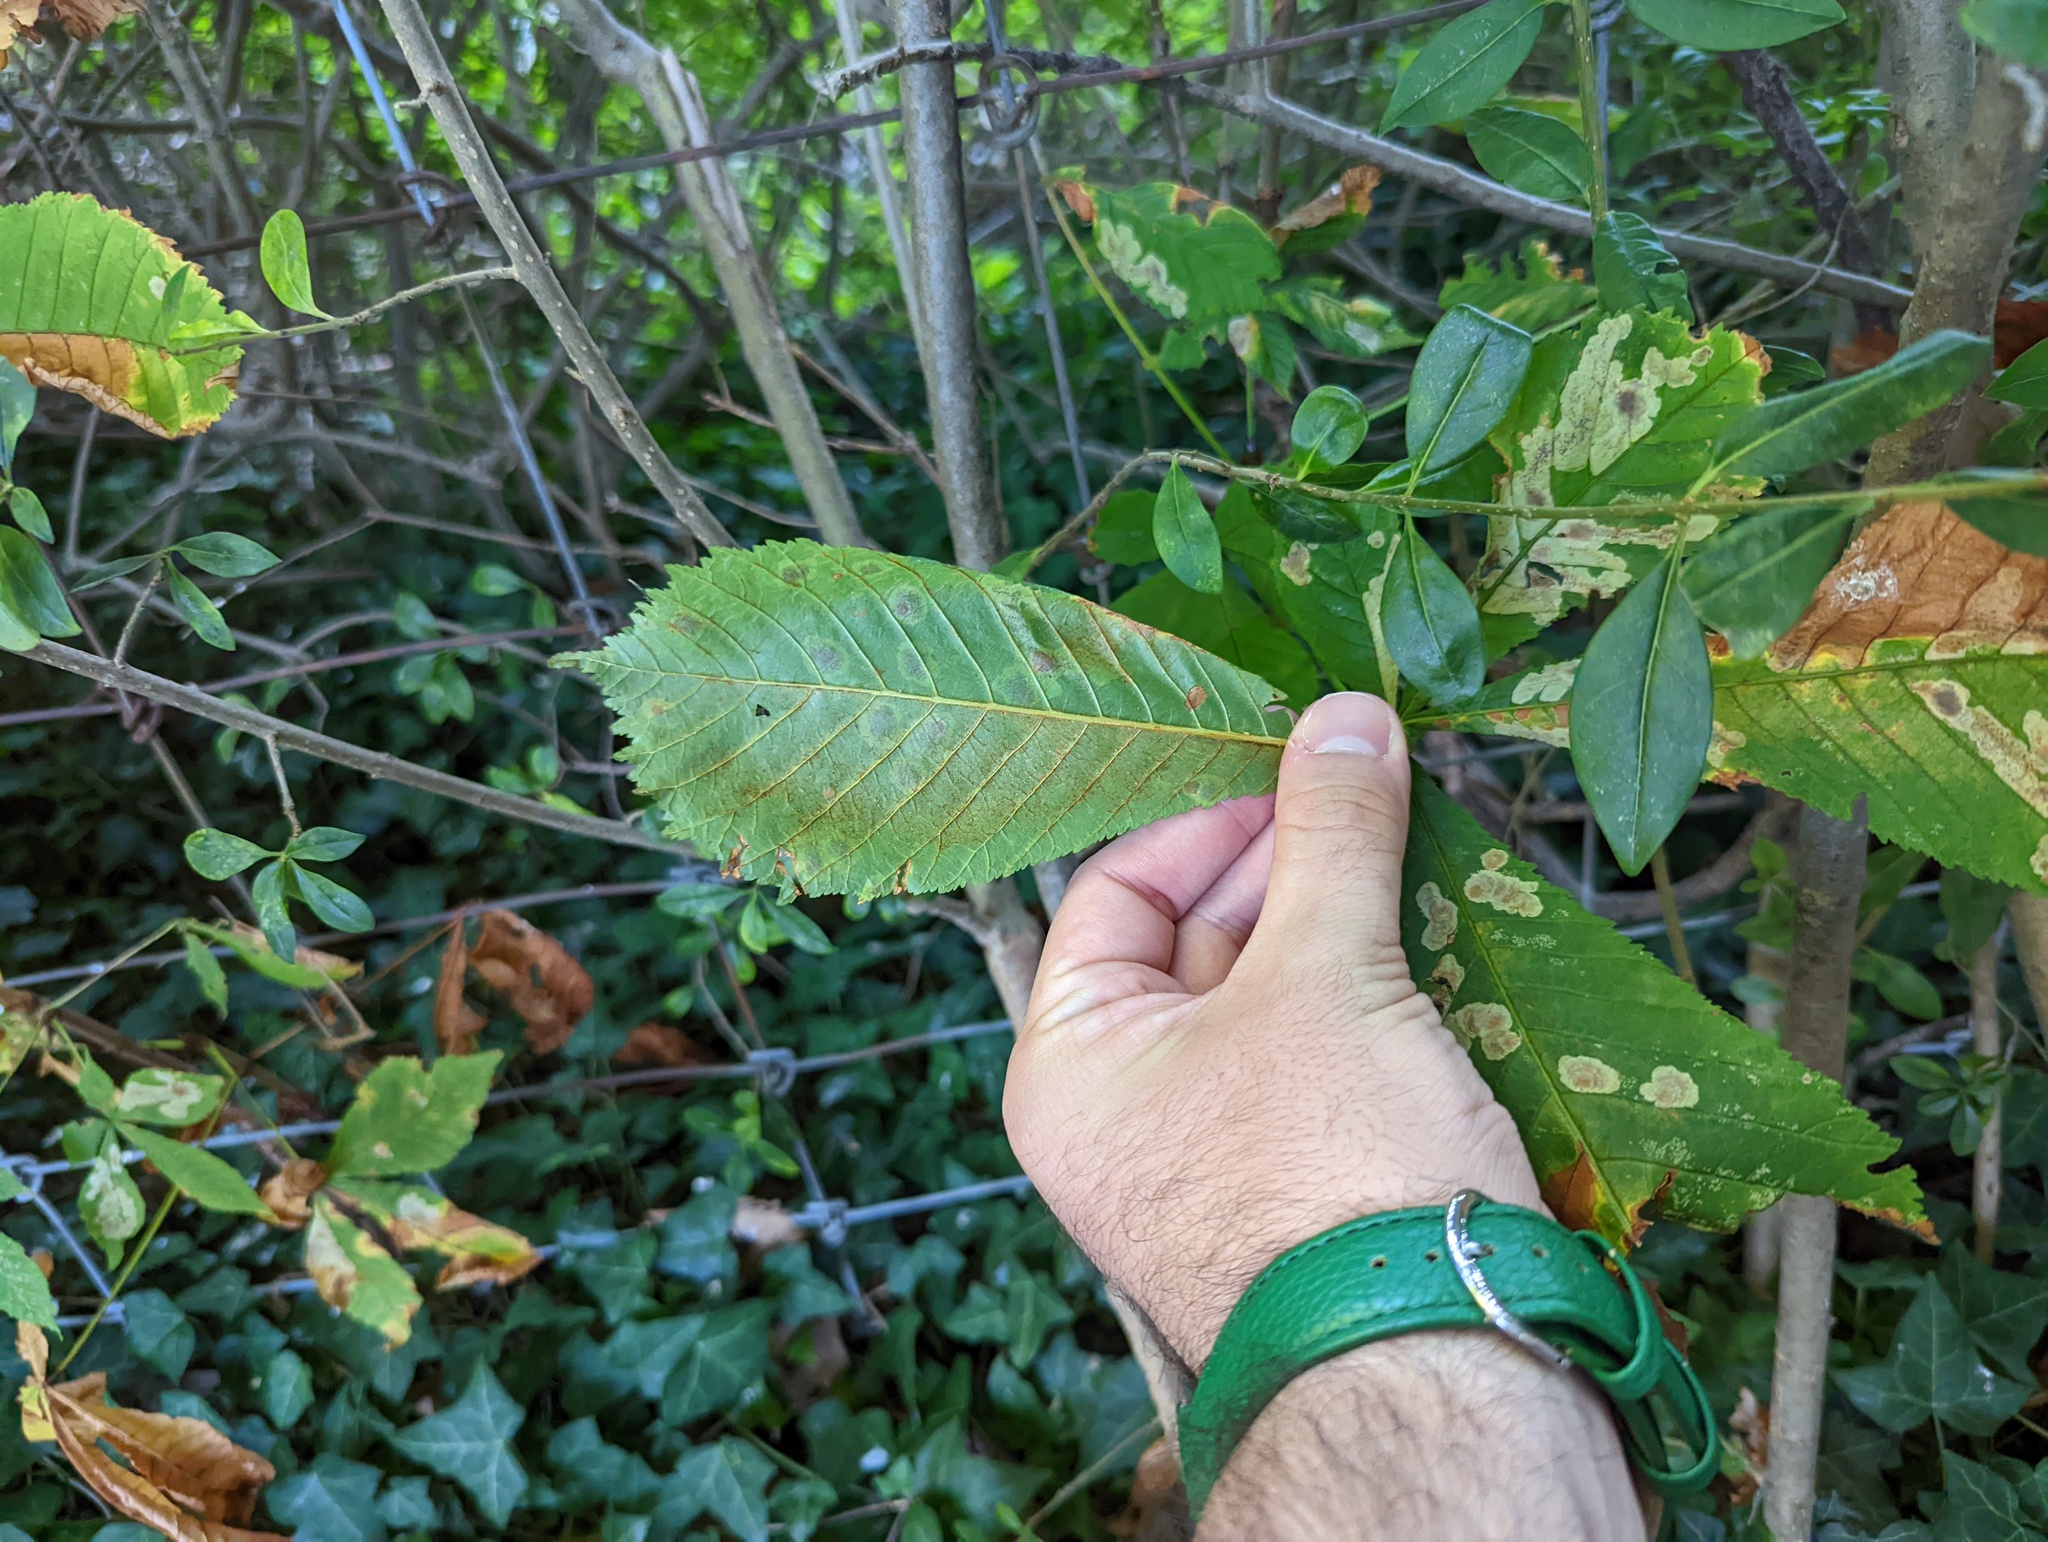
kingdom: Animalia
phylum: Arthropoda
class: Insecta
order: Lepidoptera
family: Gracillariidae
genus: Cameraria
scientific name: Cameraria ohridella
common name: Horse-chestnut leaf-miner
